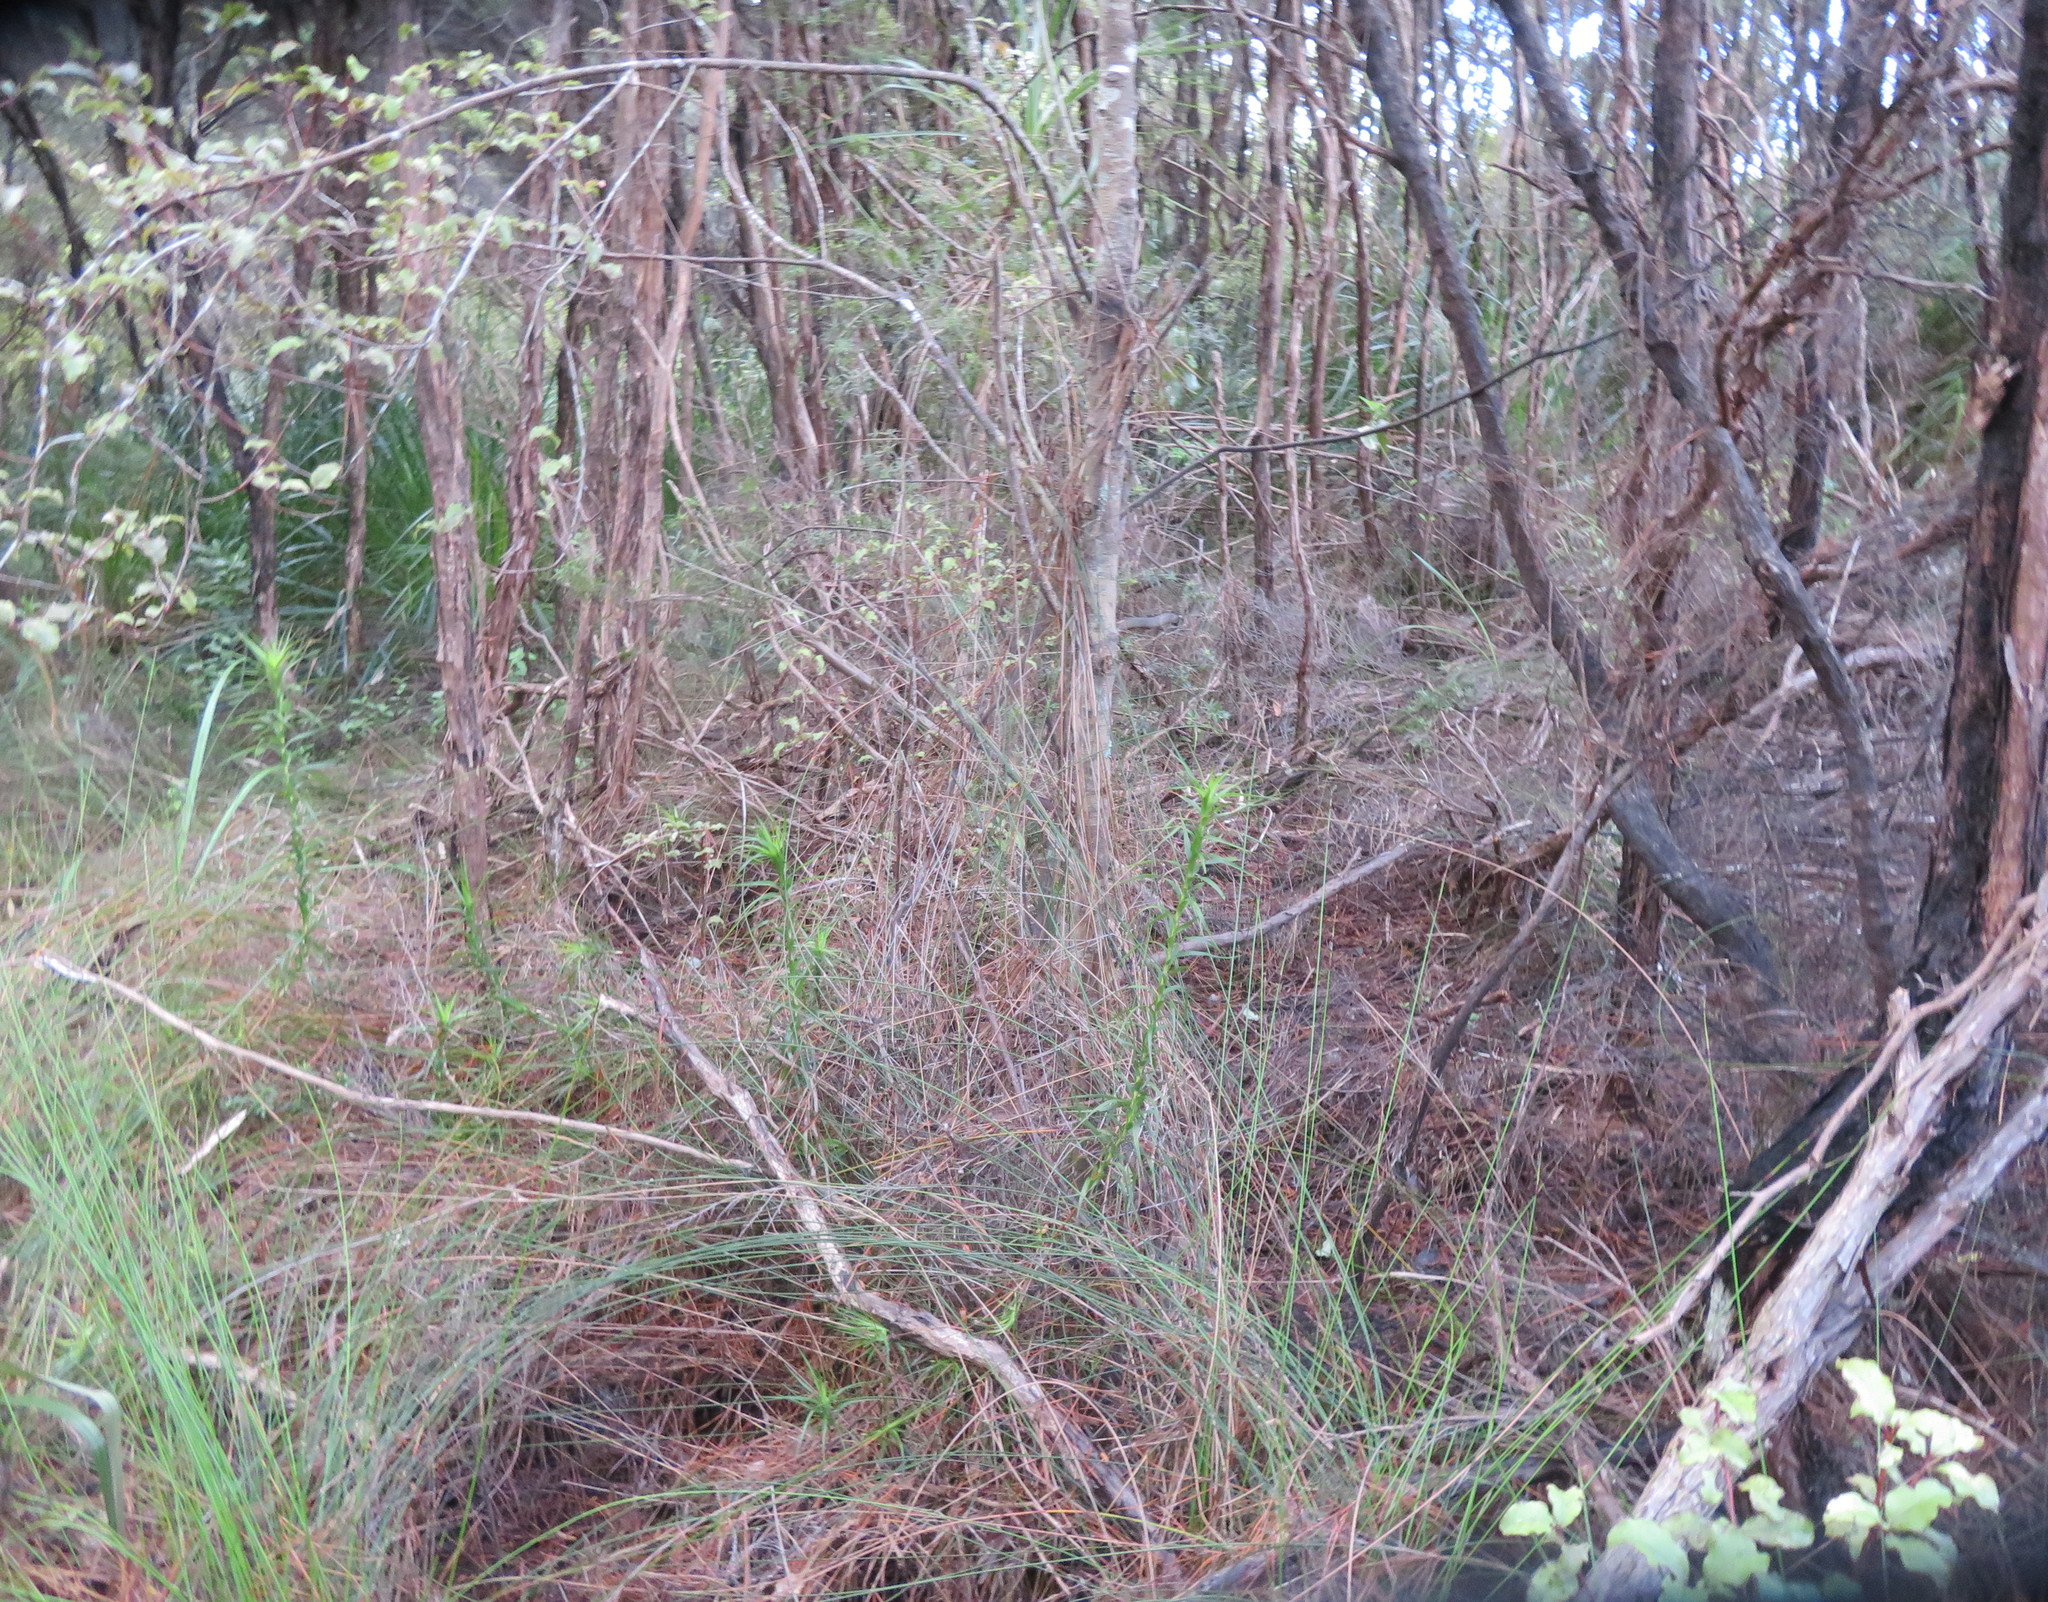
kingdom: Plantae
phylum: Tracheophyta
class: Magnoliopsida
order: Ericales
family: Ericaceae
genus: Dracophyllum
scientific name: Dracophyllum sinclairii
